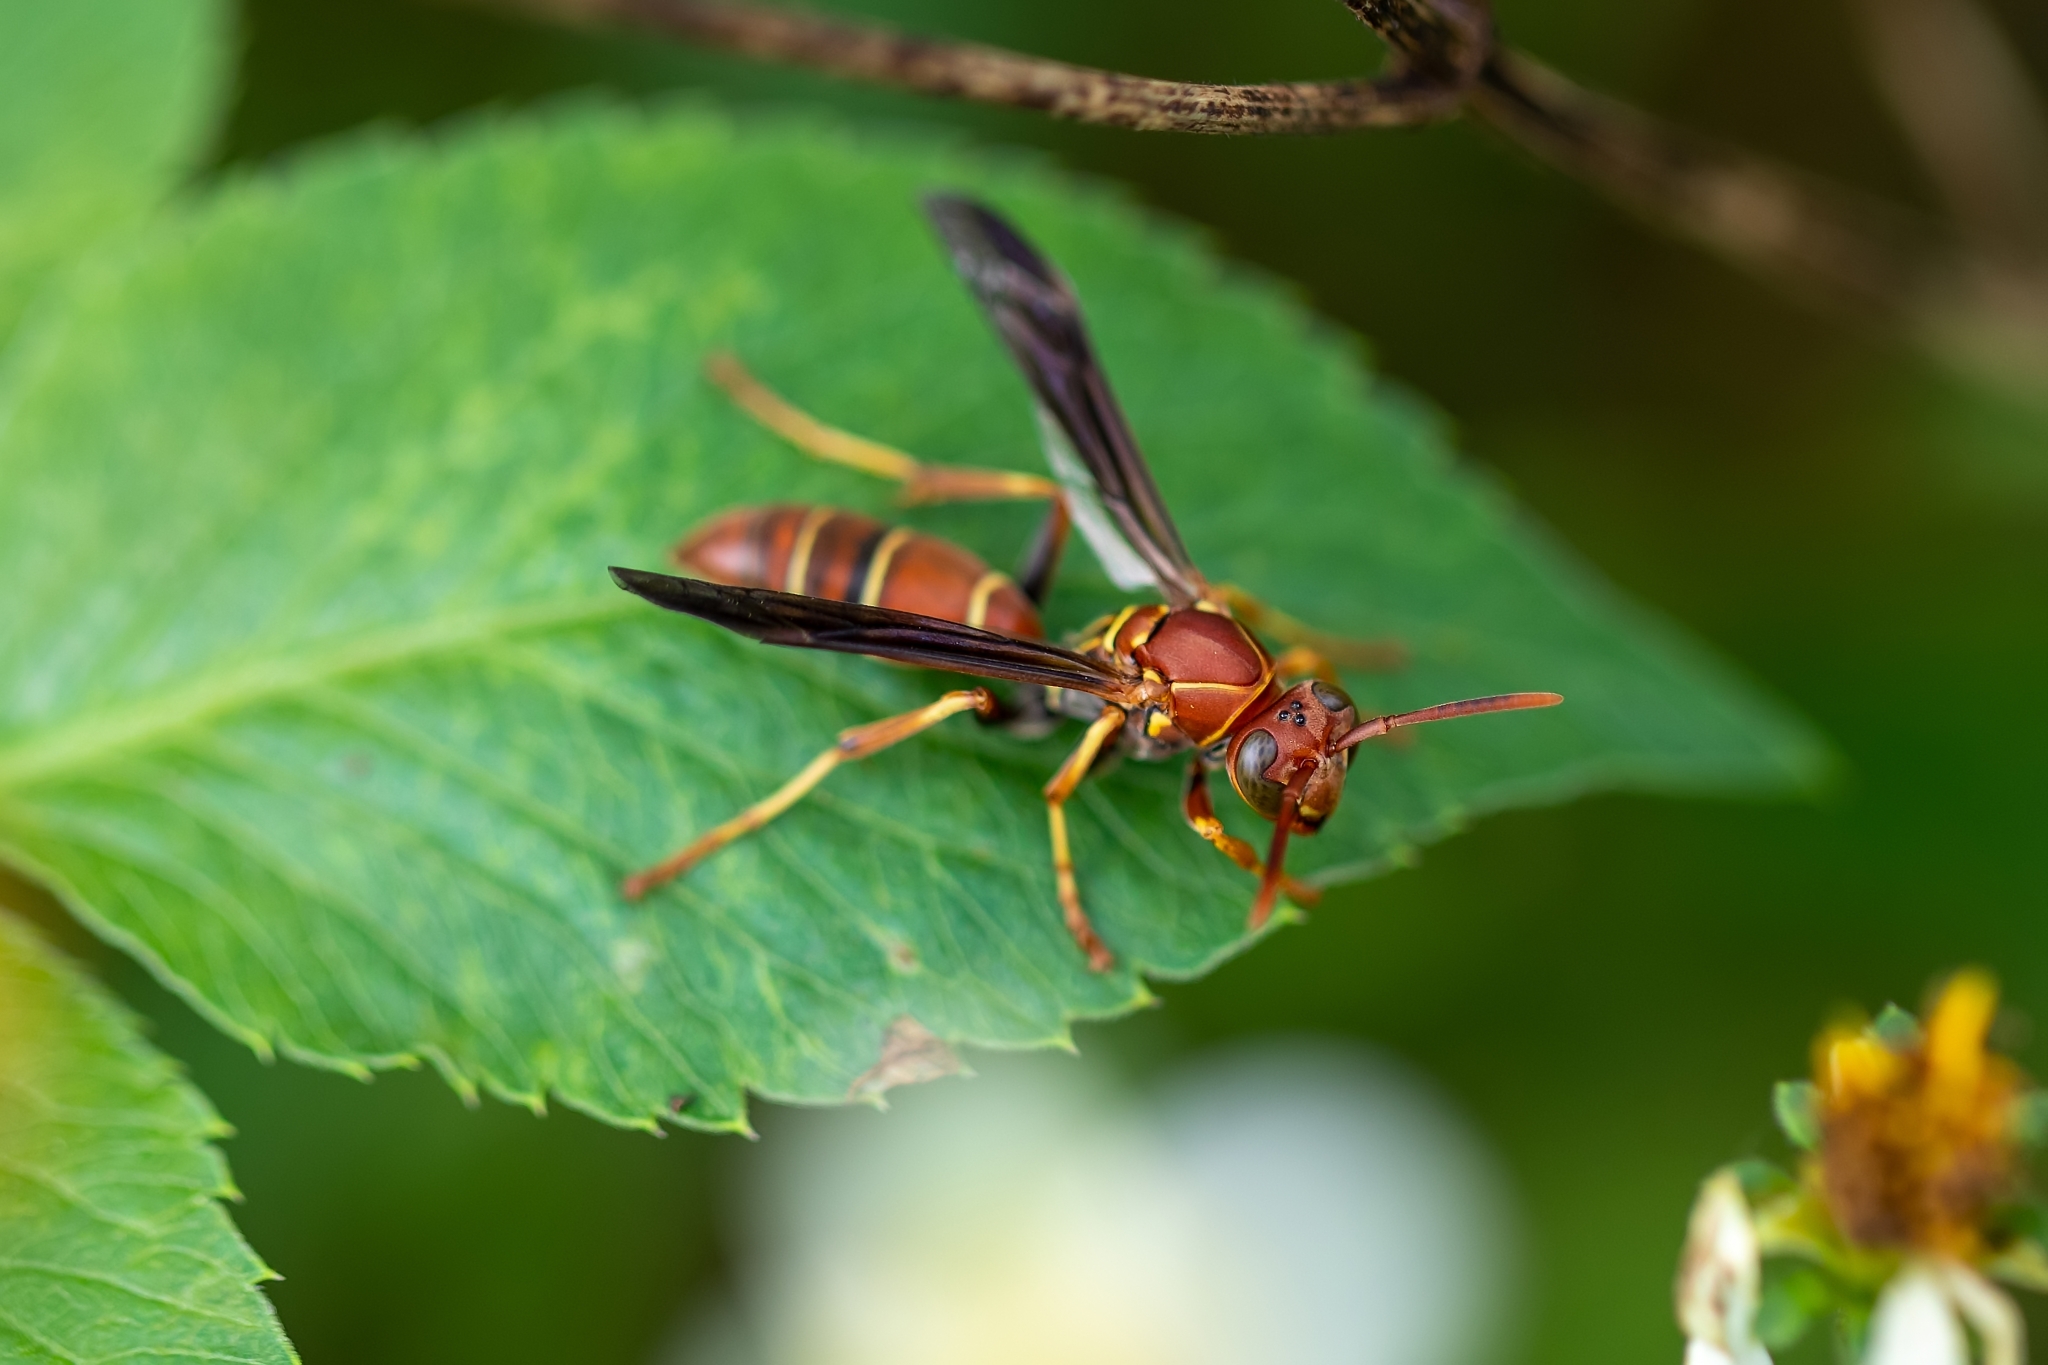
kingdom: Animalia
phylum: Arthropoda
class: Insecta
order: Hymenoptera
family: Eumenidae
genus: Polistes
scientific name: Polistes dorsalis
